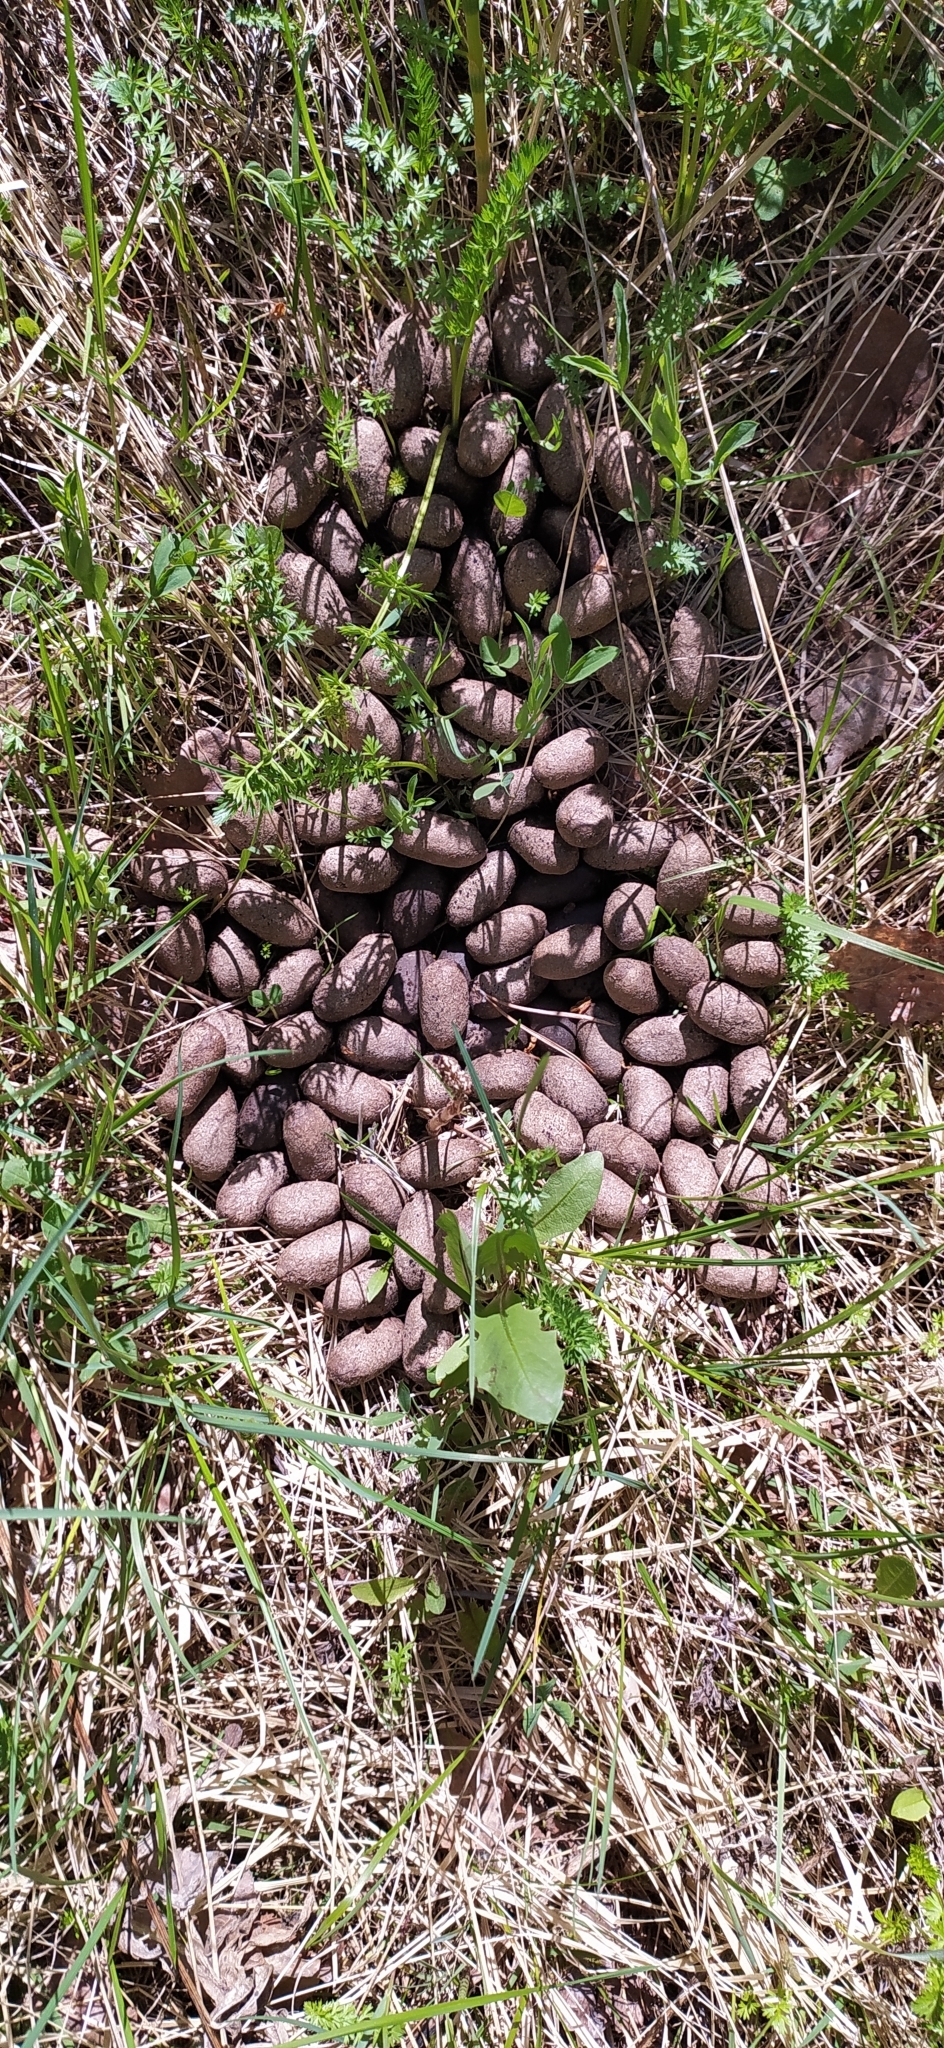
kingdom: Animalia
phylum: Chordata
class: Mammalia
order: Artiodactyla
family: Cervidae
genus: Alces
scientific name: Alces alces
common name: Moose
